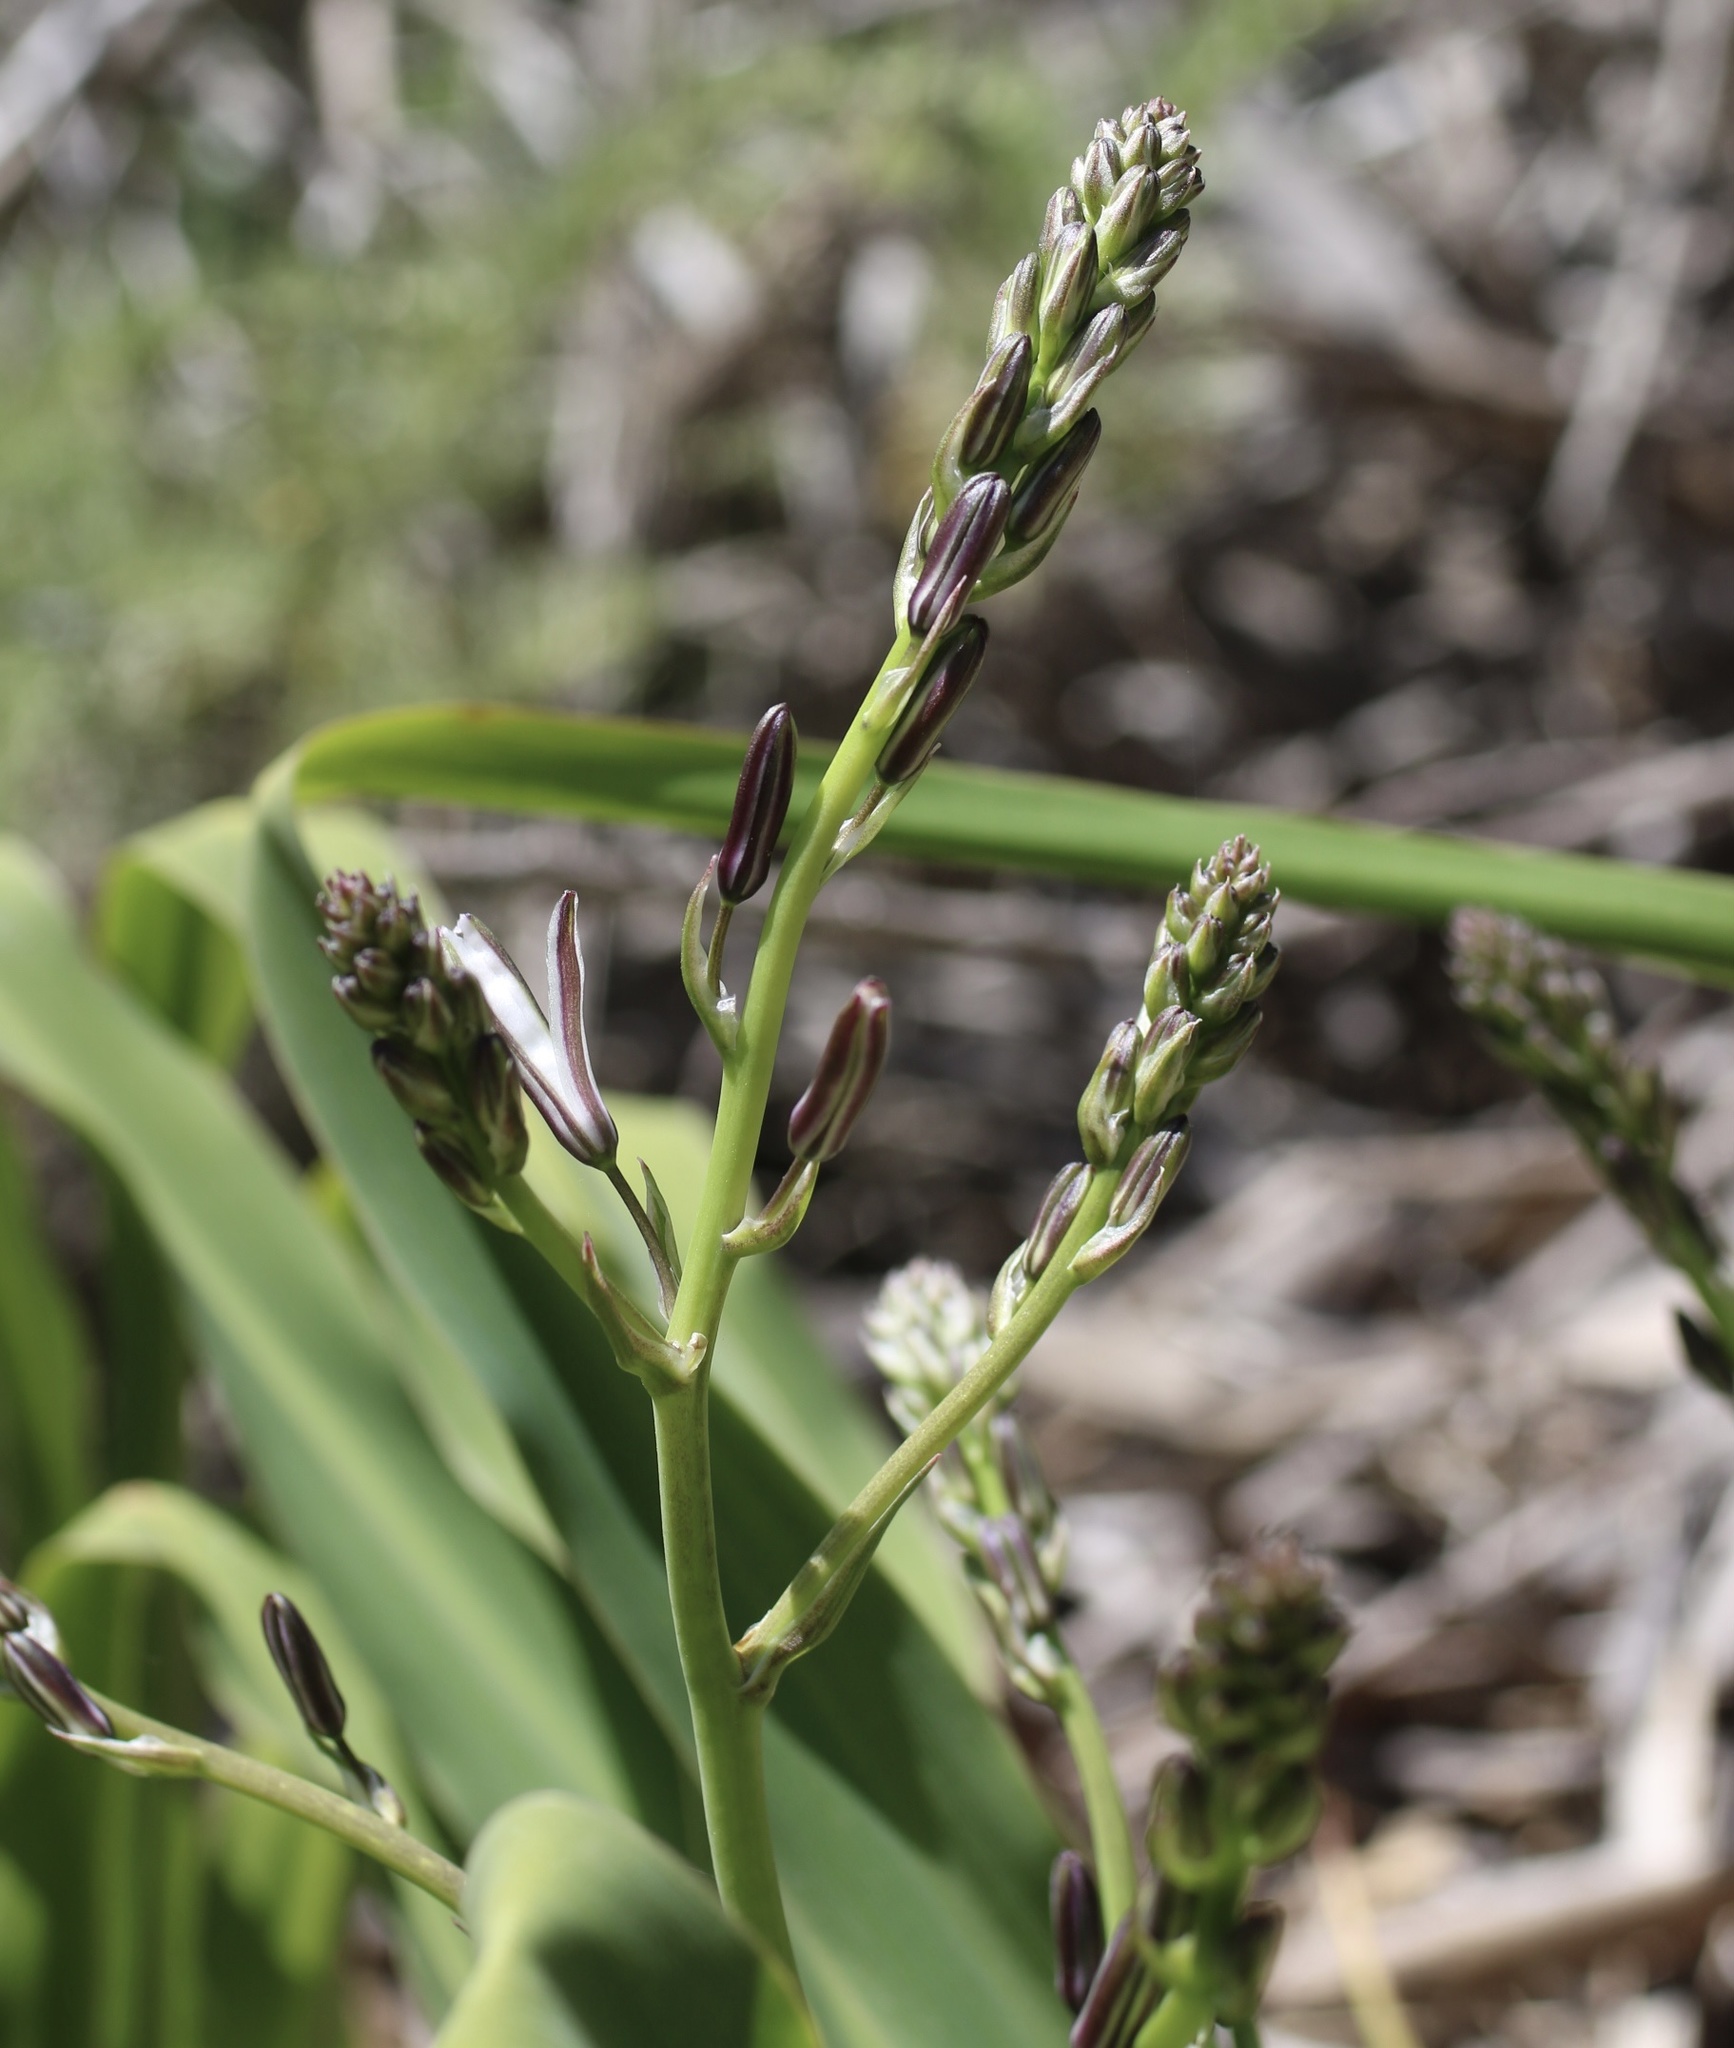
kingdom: Plantae
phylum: Tracheophyta
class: Liliopsida
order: Asparagales
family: Asparagaceae
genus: Chlorogalum
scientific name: Chlorogalum pomeridianum
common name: Amole
